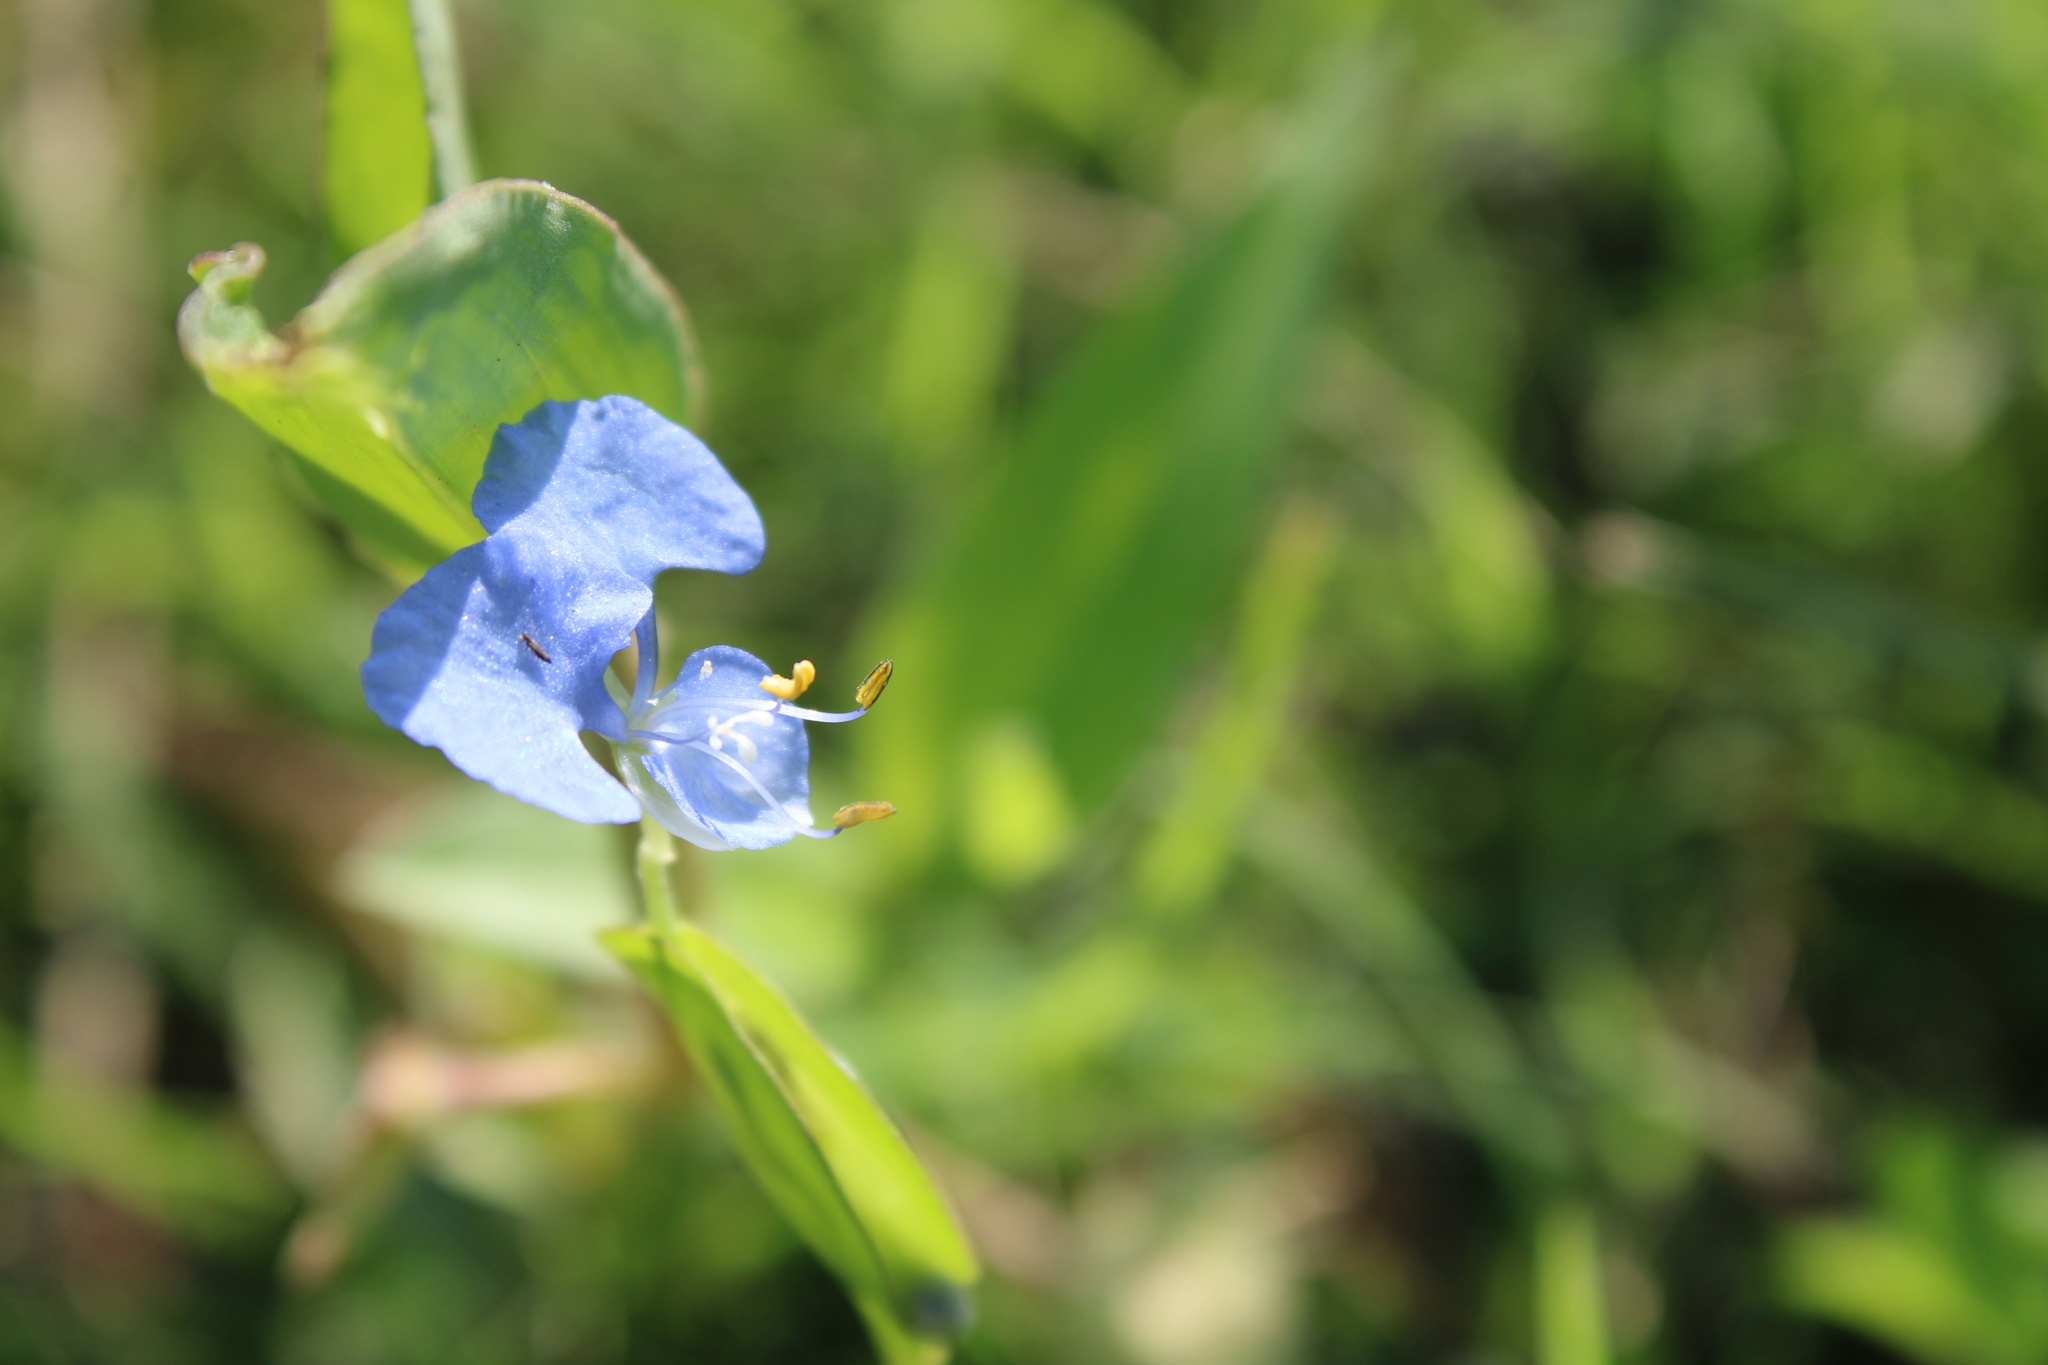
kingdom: Plantae
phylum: Tracheophyta
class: Liliopsida
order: Commelinales
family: Commelinaceae
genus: Commelina
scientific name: Commelina diffusa
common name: Climbing dayflower
